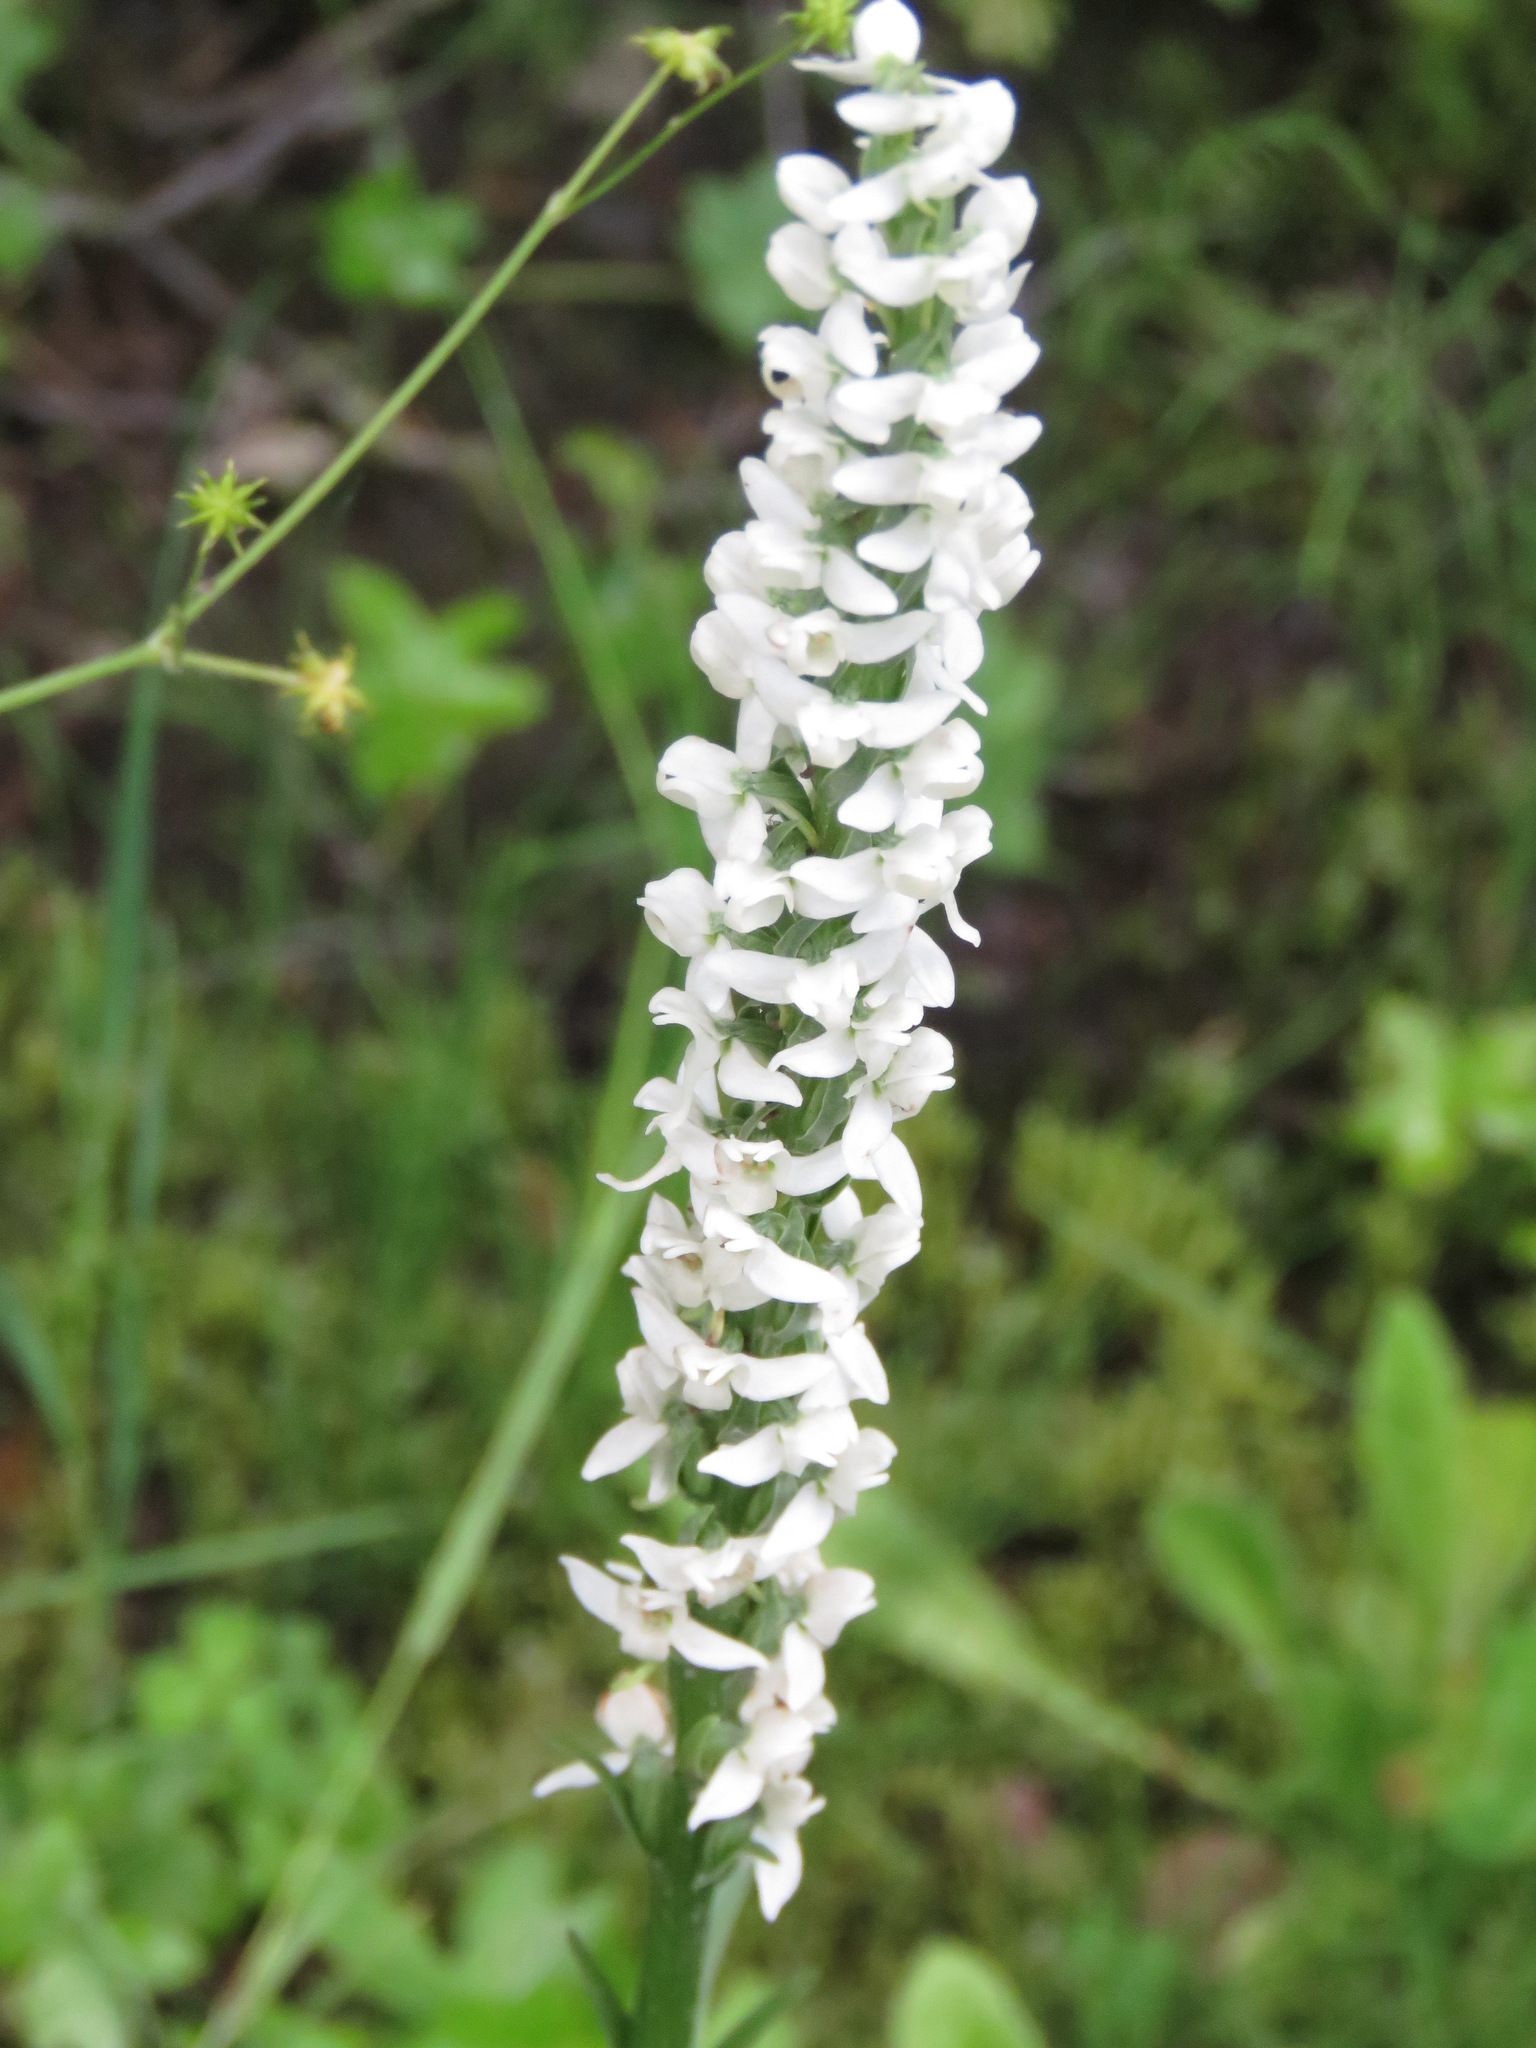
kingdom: Plantae
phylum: Tracheophyta
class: Liliopsida
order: Asparagales
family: Orchidaceae
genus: Platanthera
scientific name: Platanthera dilatata
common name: Bog candles
